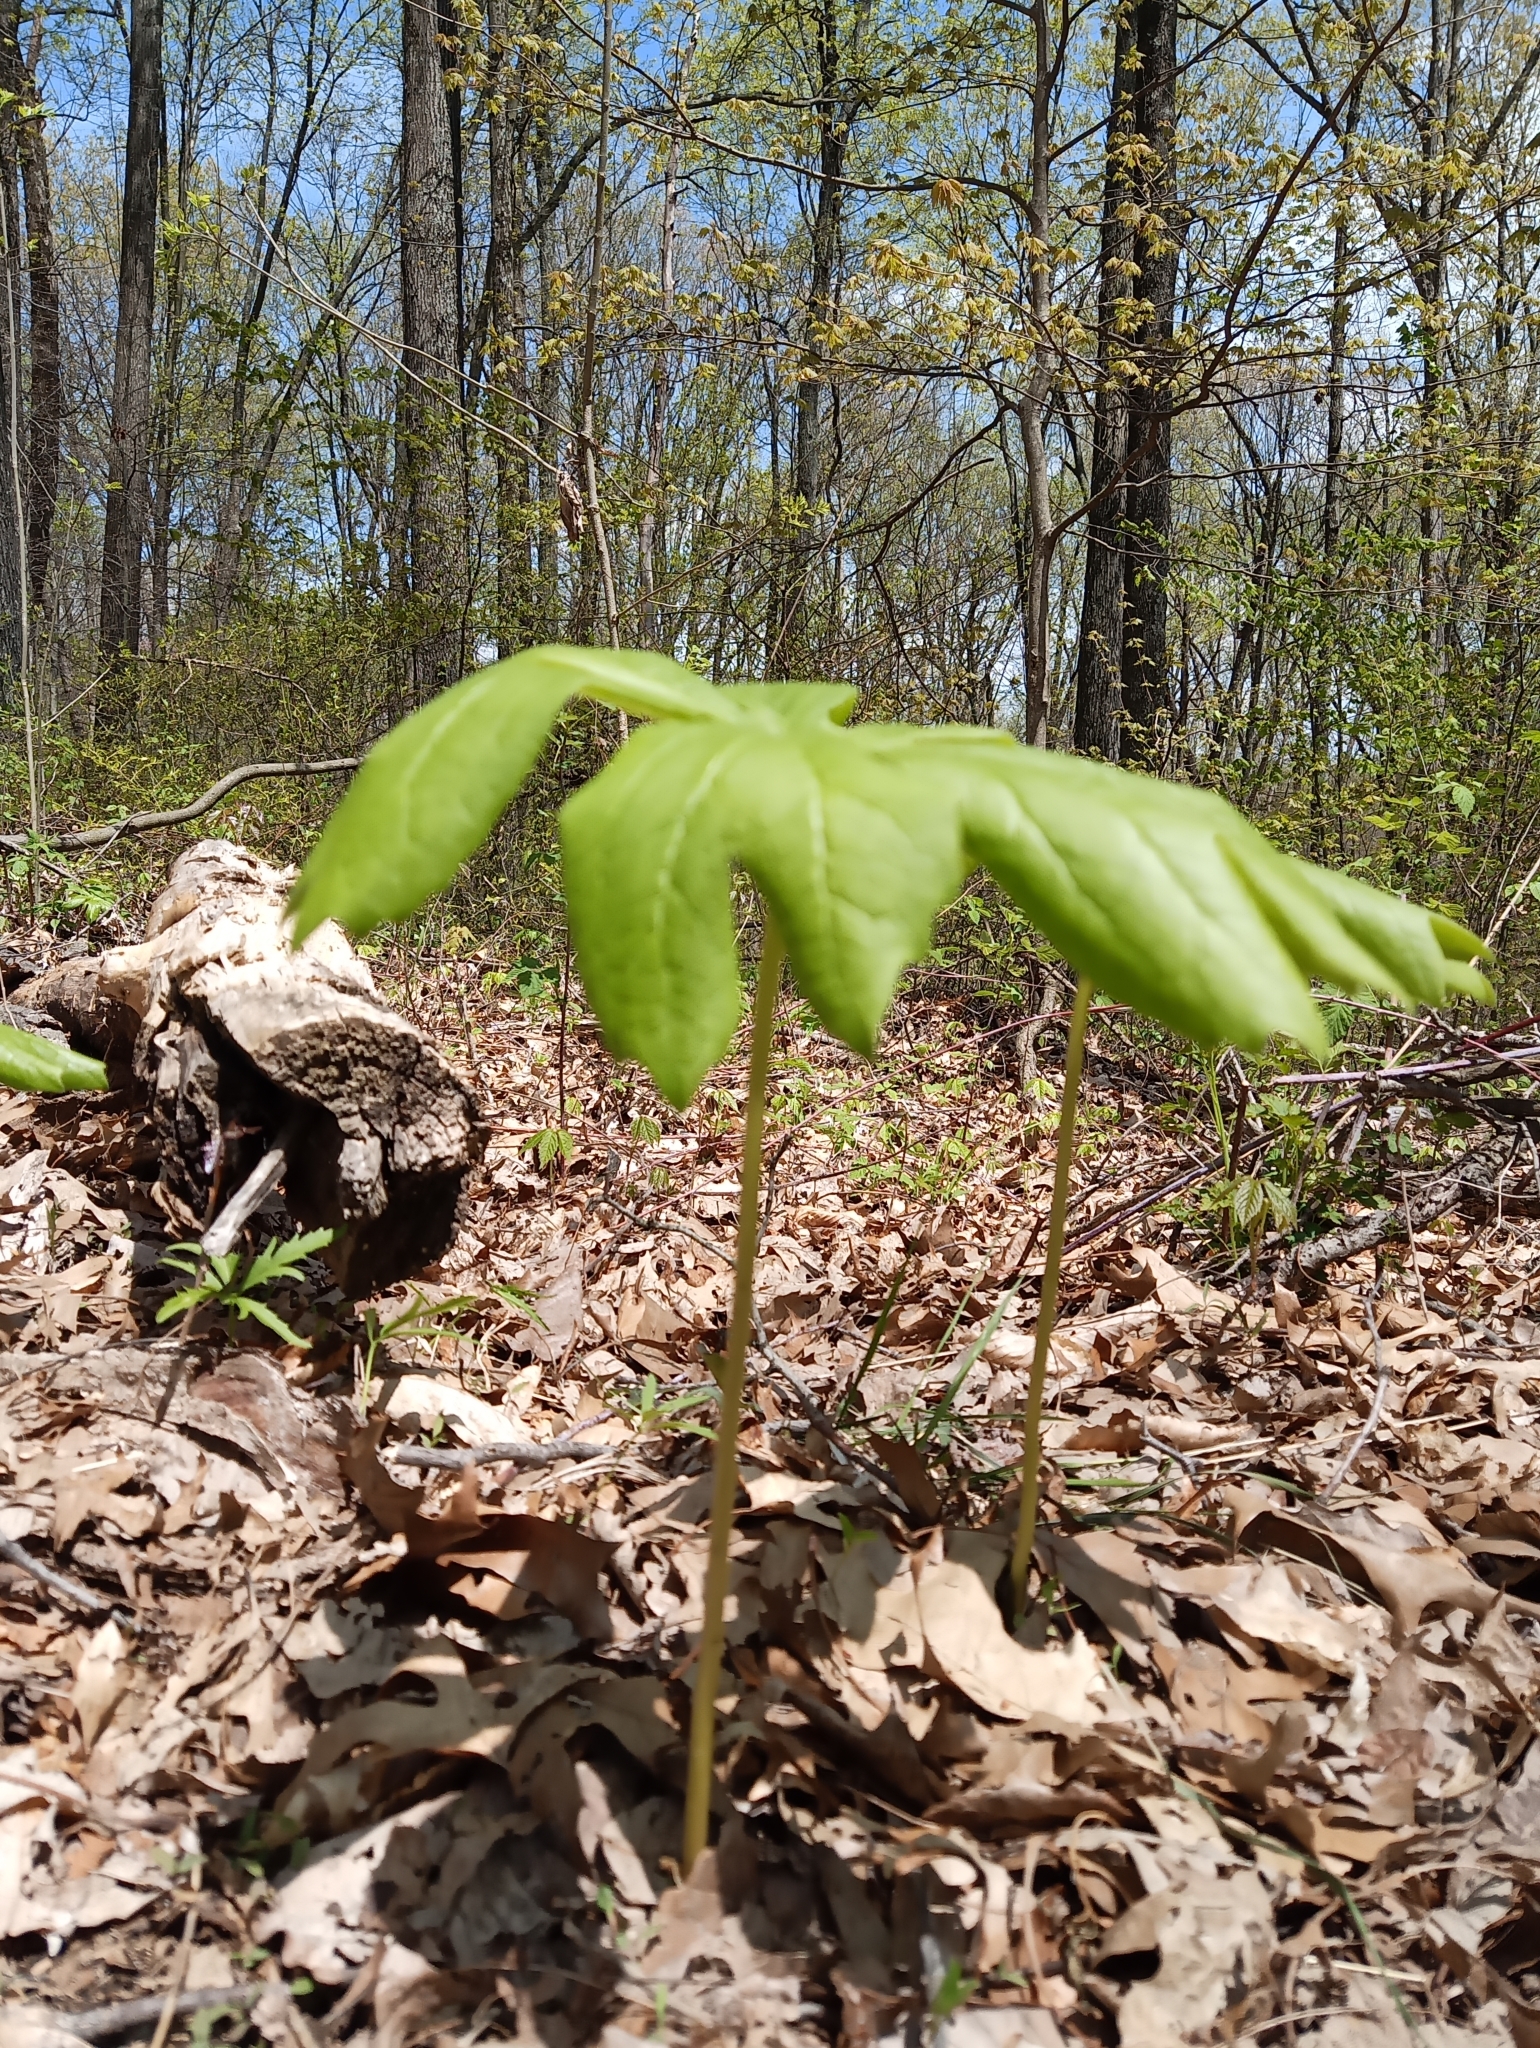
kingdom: Plantae
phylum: Tracheophyta
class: Magnoliopsida
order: Ranunculales
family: Berberidaceae
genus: Podophyllum
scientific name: Podophyllum peltatum
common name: Wild mandrake
